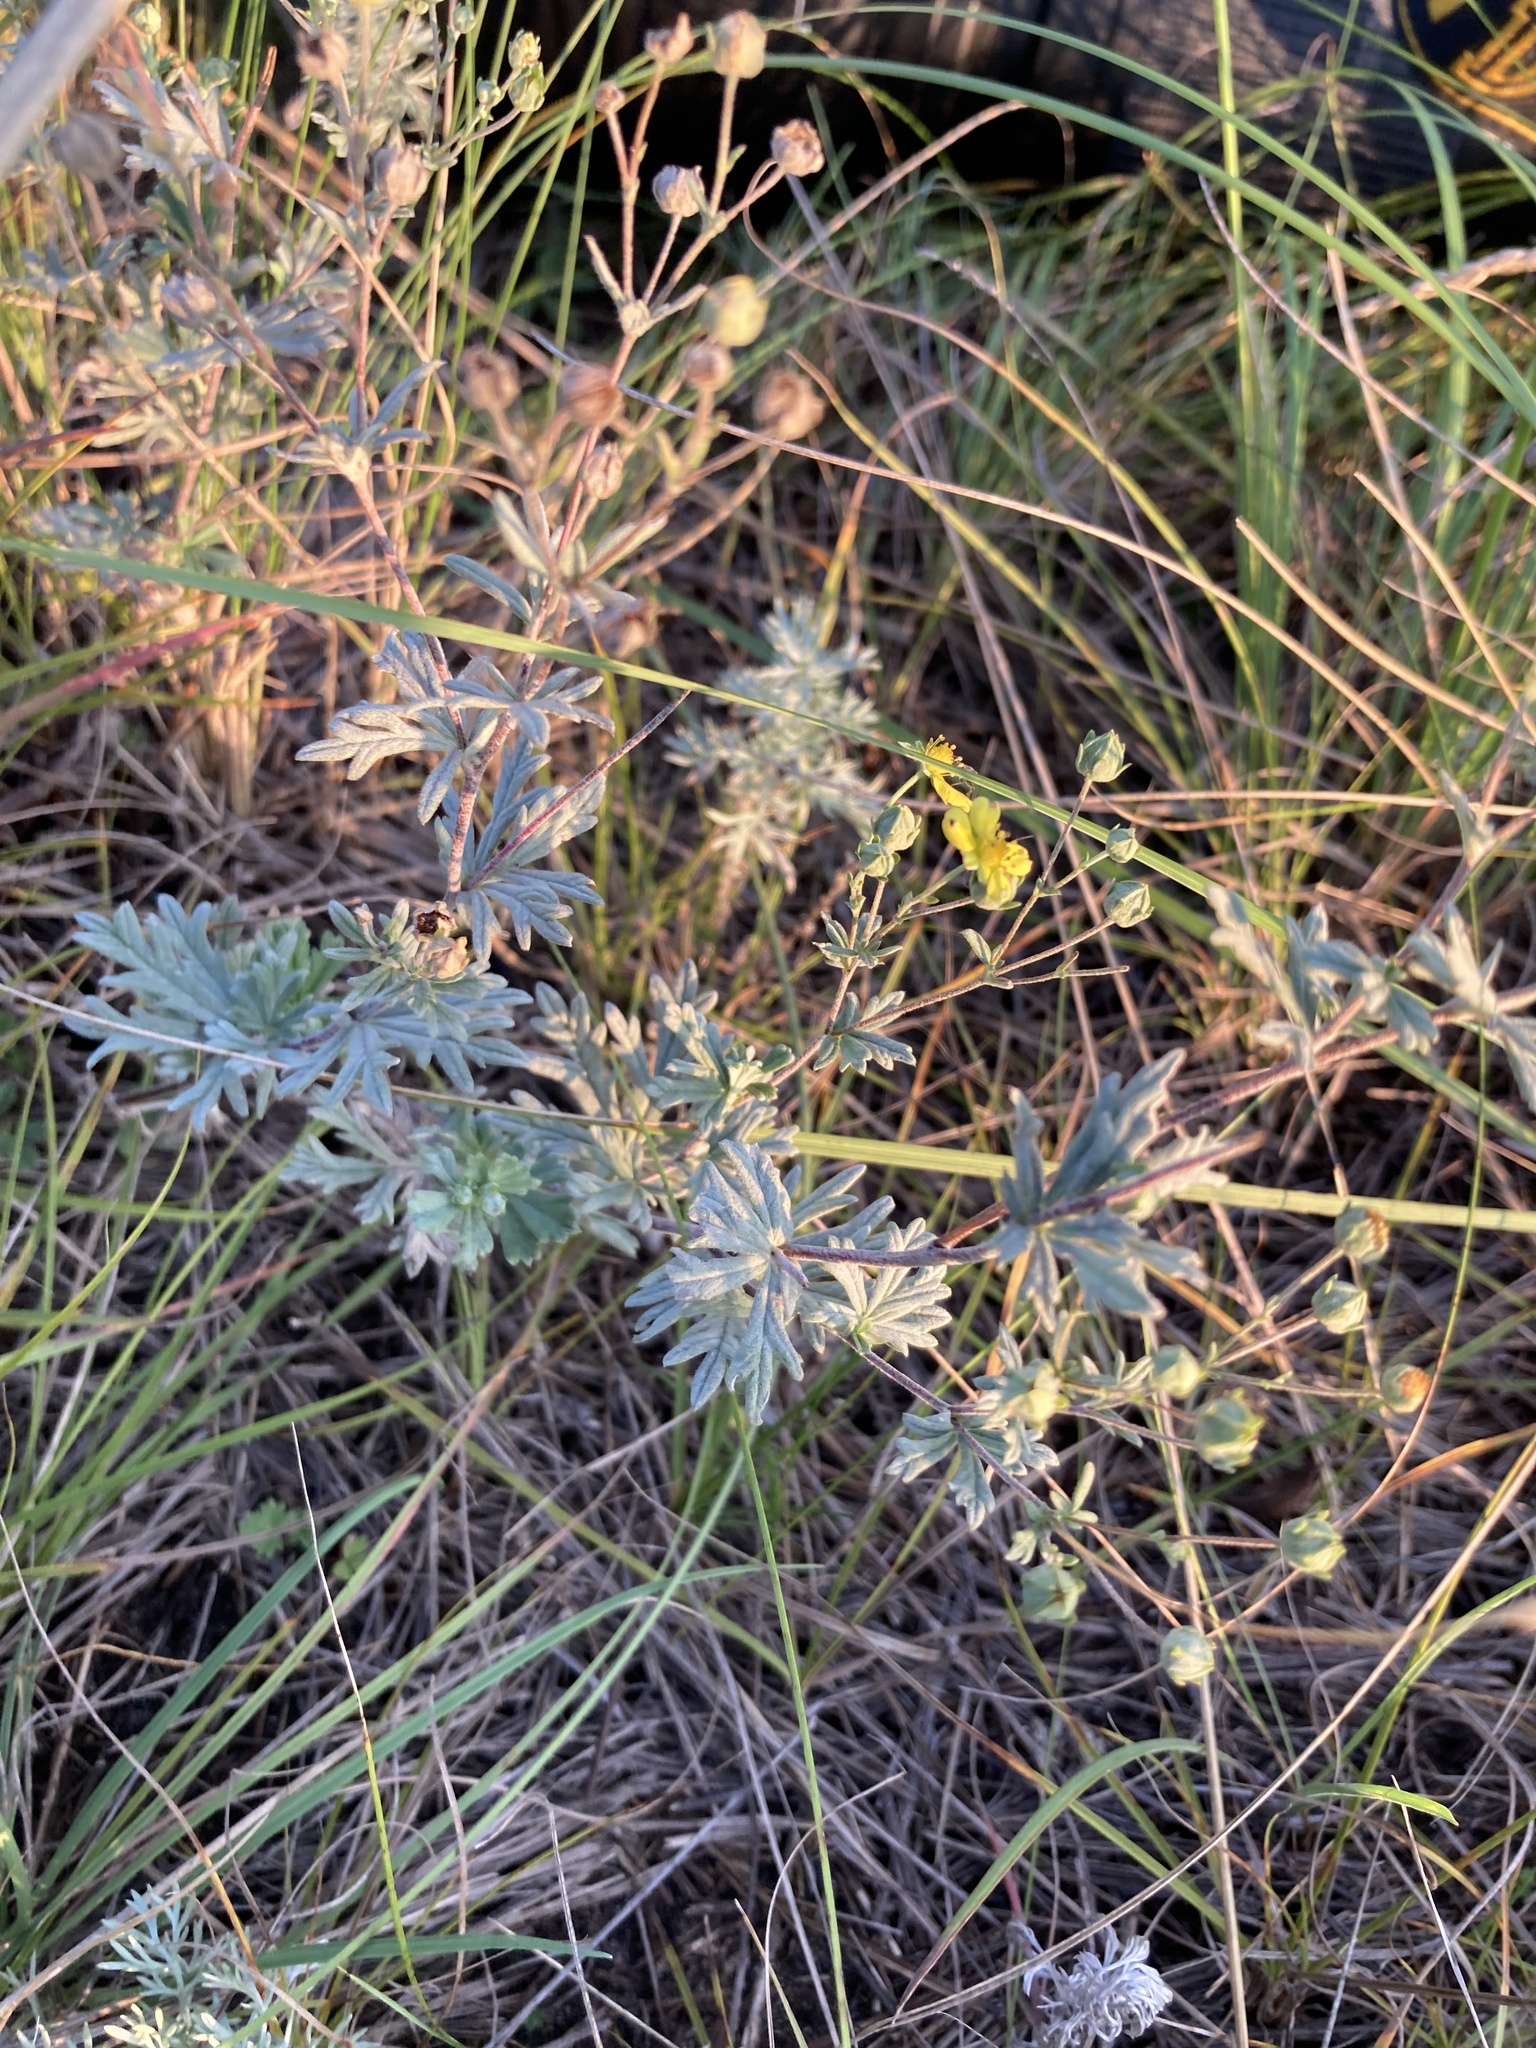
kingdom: Plantae
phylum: Tracheophyta
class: Magnoliopsida
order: Rosales
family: Rosaceae
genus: Potentilla
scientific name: Potentilla argentea
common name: Hoary cinquefoil
